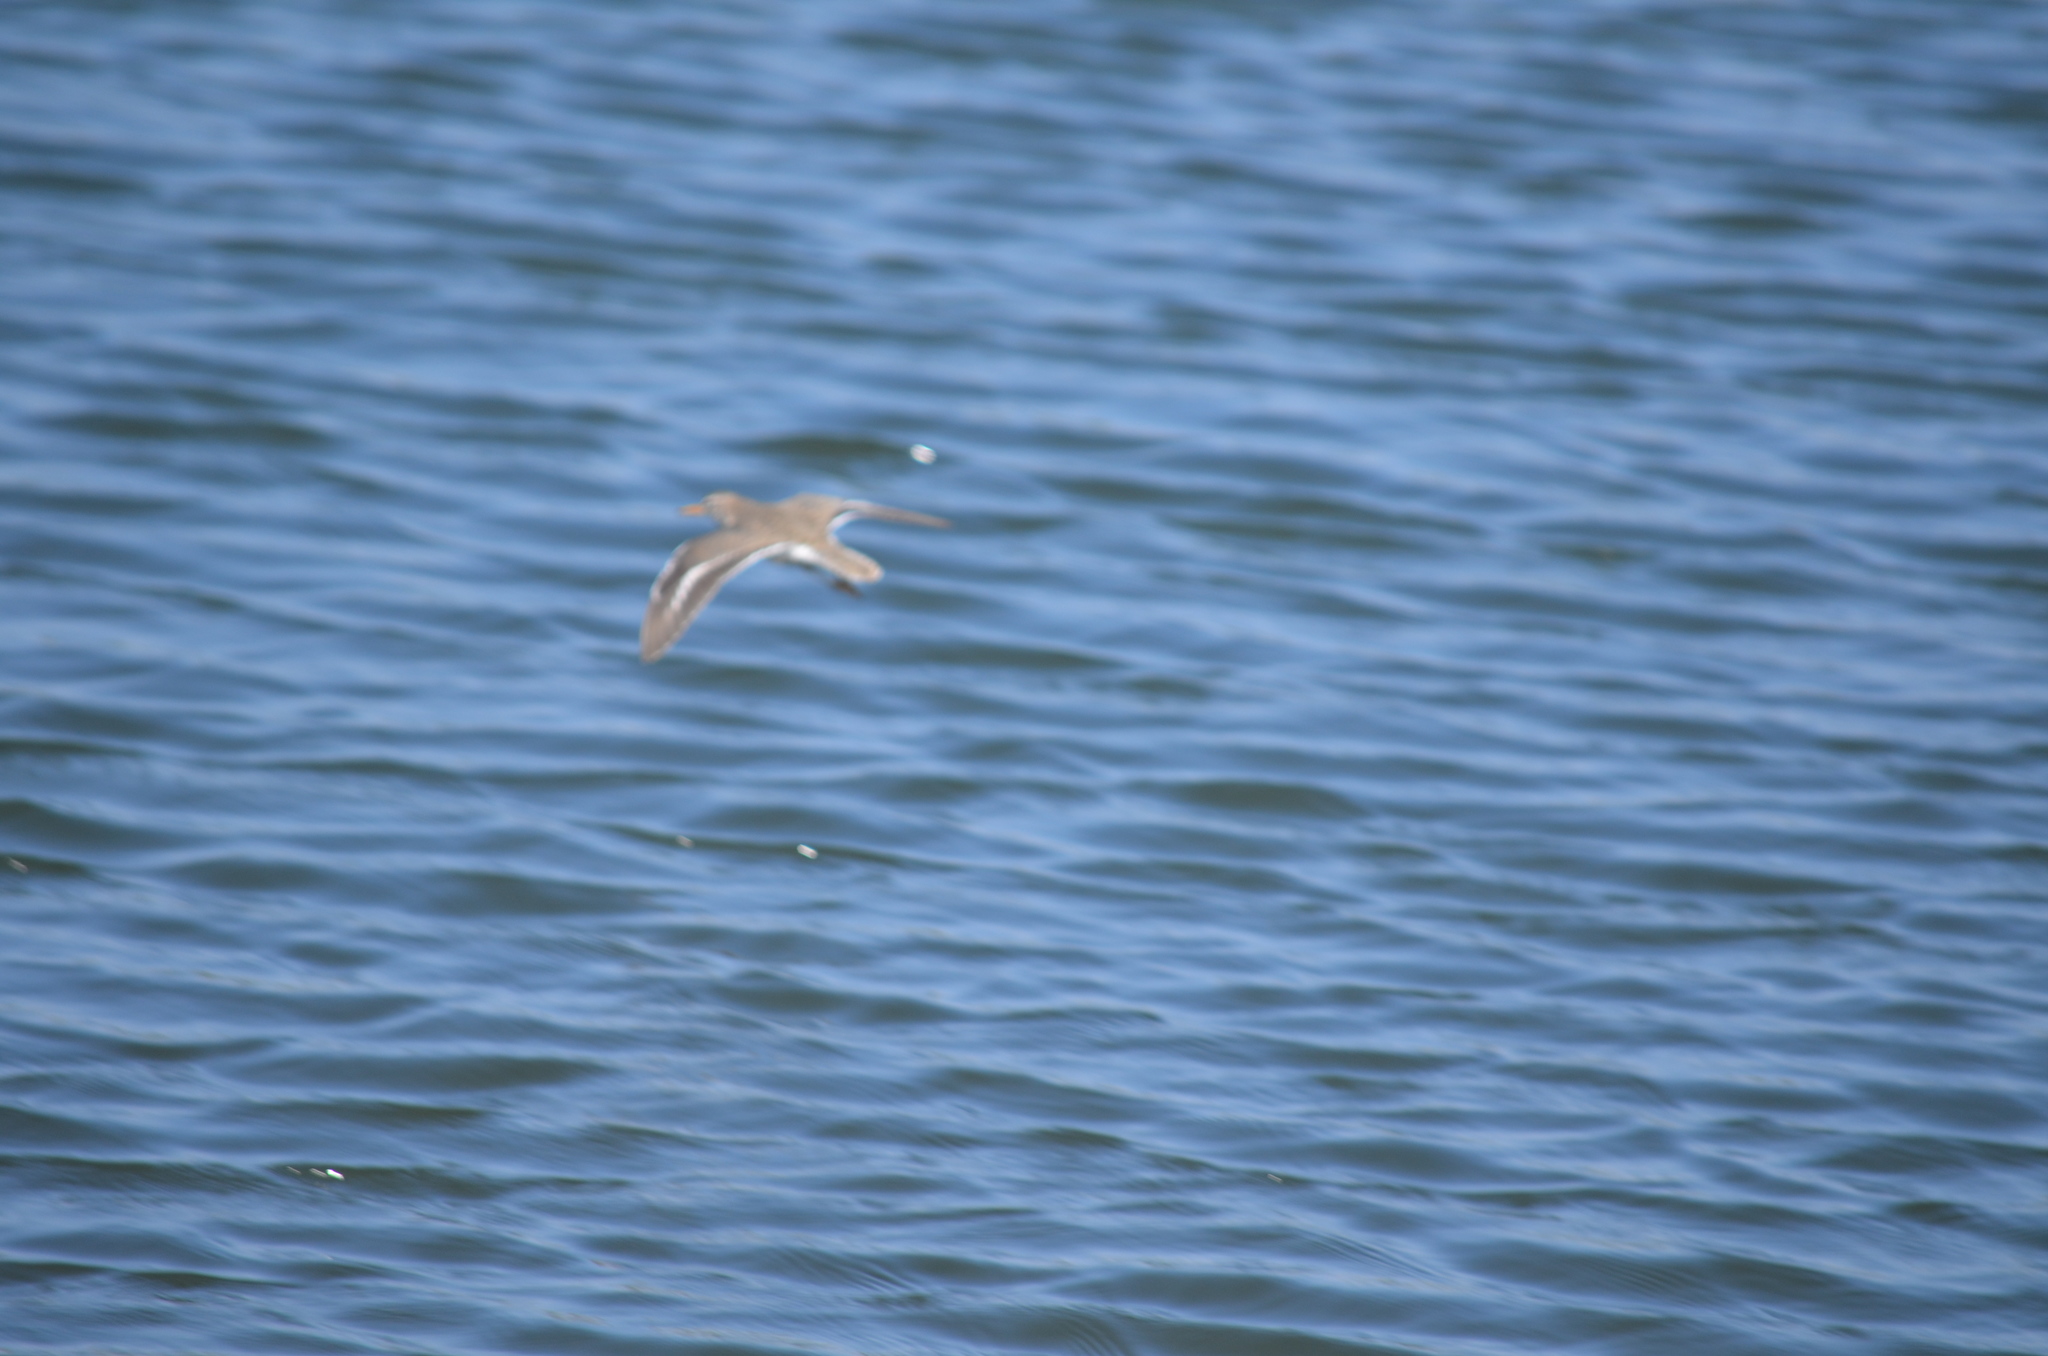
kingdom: Animalia
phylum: Chordata
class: Aves
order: Charadriiformes
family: Scolopacidae
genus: Actitis
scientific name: Actitis macularius
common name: Spotted sandpiper
